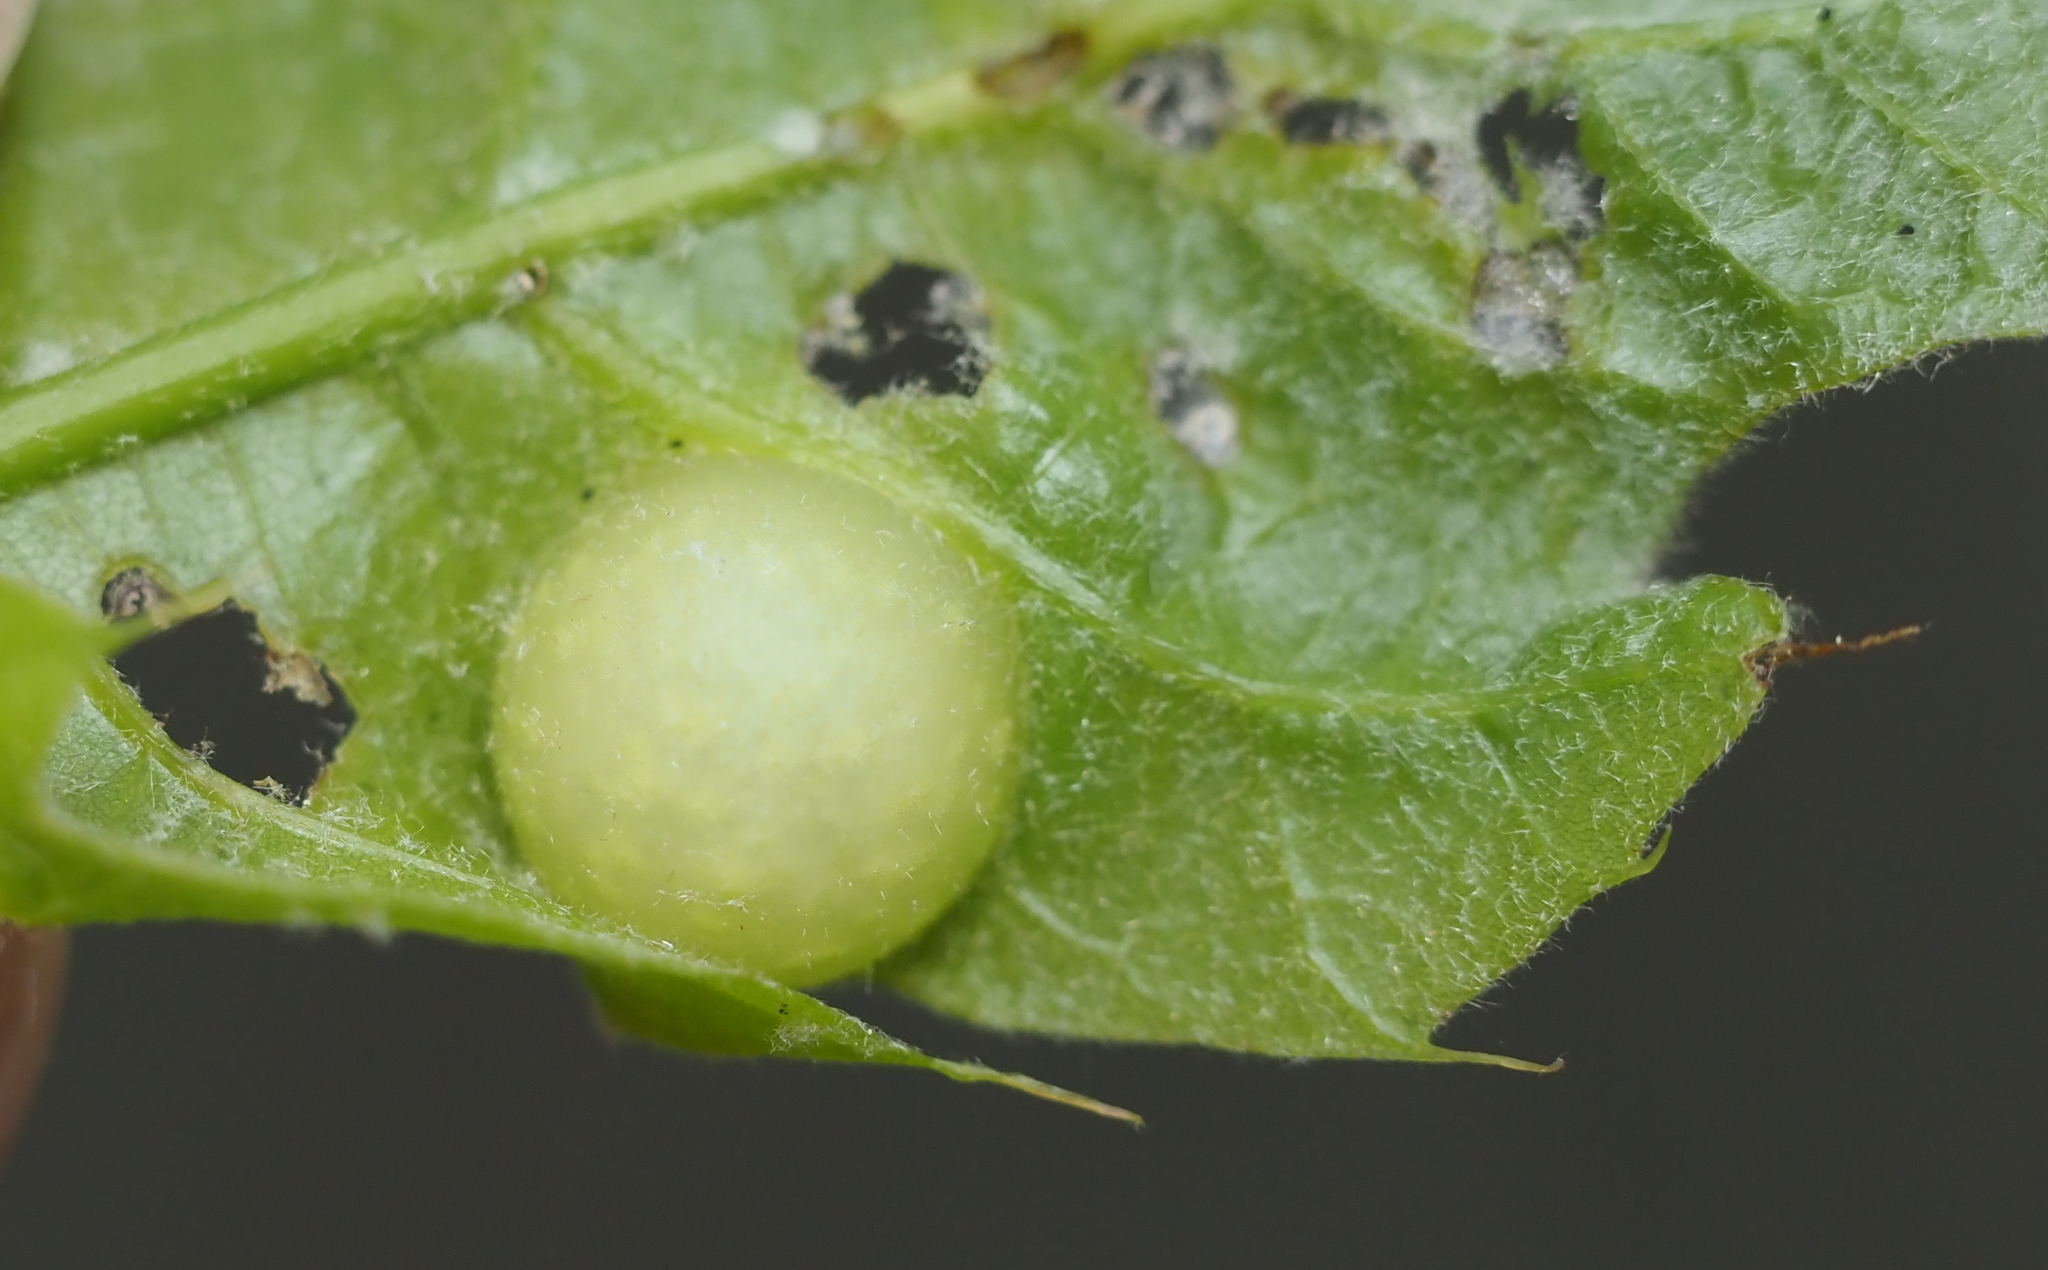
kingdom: Animalia
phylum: Arthropoda
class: Insecta
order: Hymenoptera
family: Cynipidae
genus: Amphibolips
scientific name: Amphibolips
